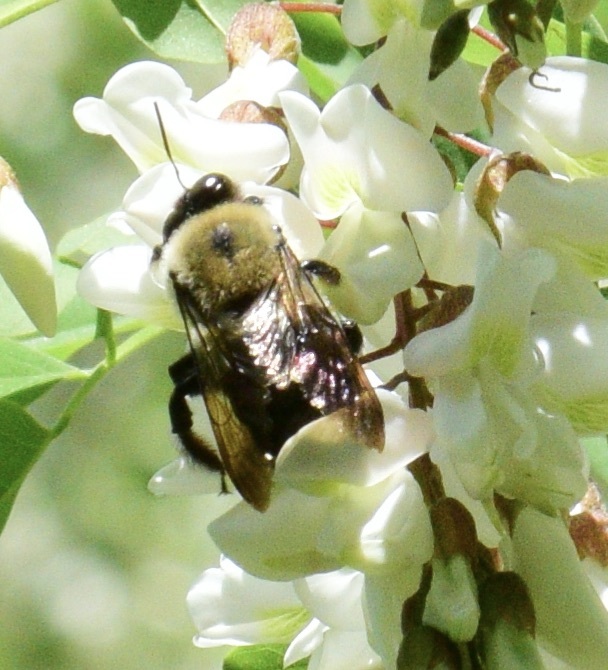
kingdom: Animalia
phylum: Arthropoda
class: Insecta
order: Hymenoptera
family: Apidae
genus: Xylocopa
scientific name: Xylocopa virginica
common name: Carpenter bee
